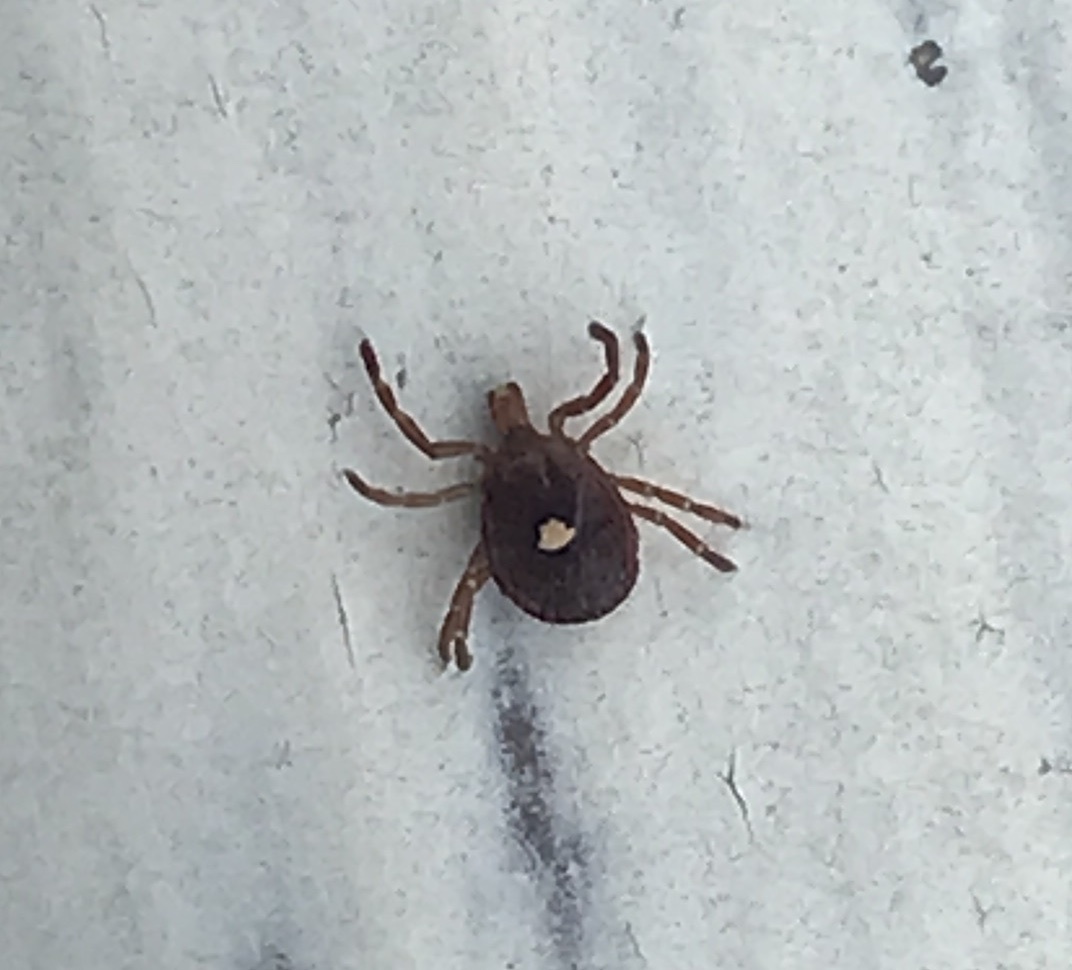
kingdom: Animalia
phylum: Arthropoda
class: Arachnida
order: Ixodida
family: Ixodidae
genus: Amblyomma
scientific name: Amblyomma americanum
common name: Lone star tick
